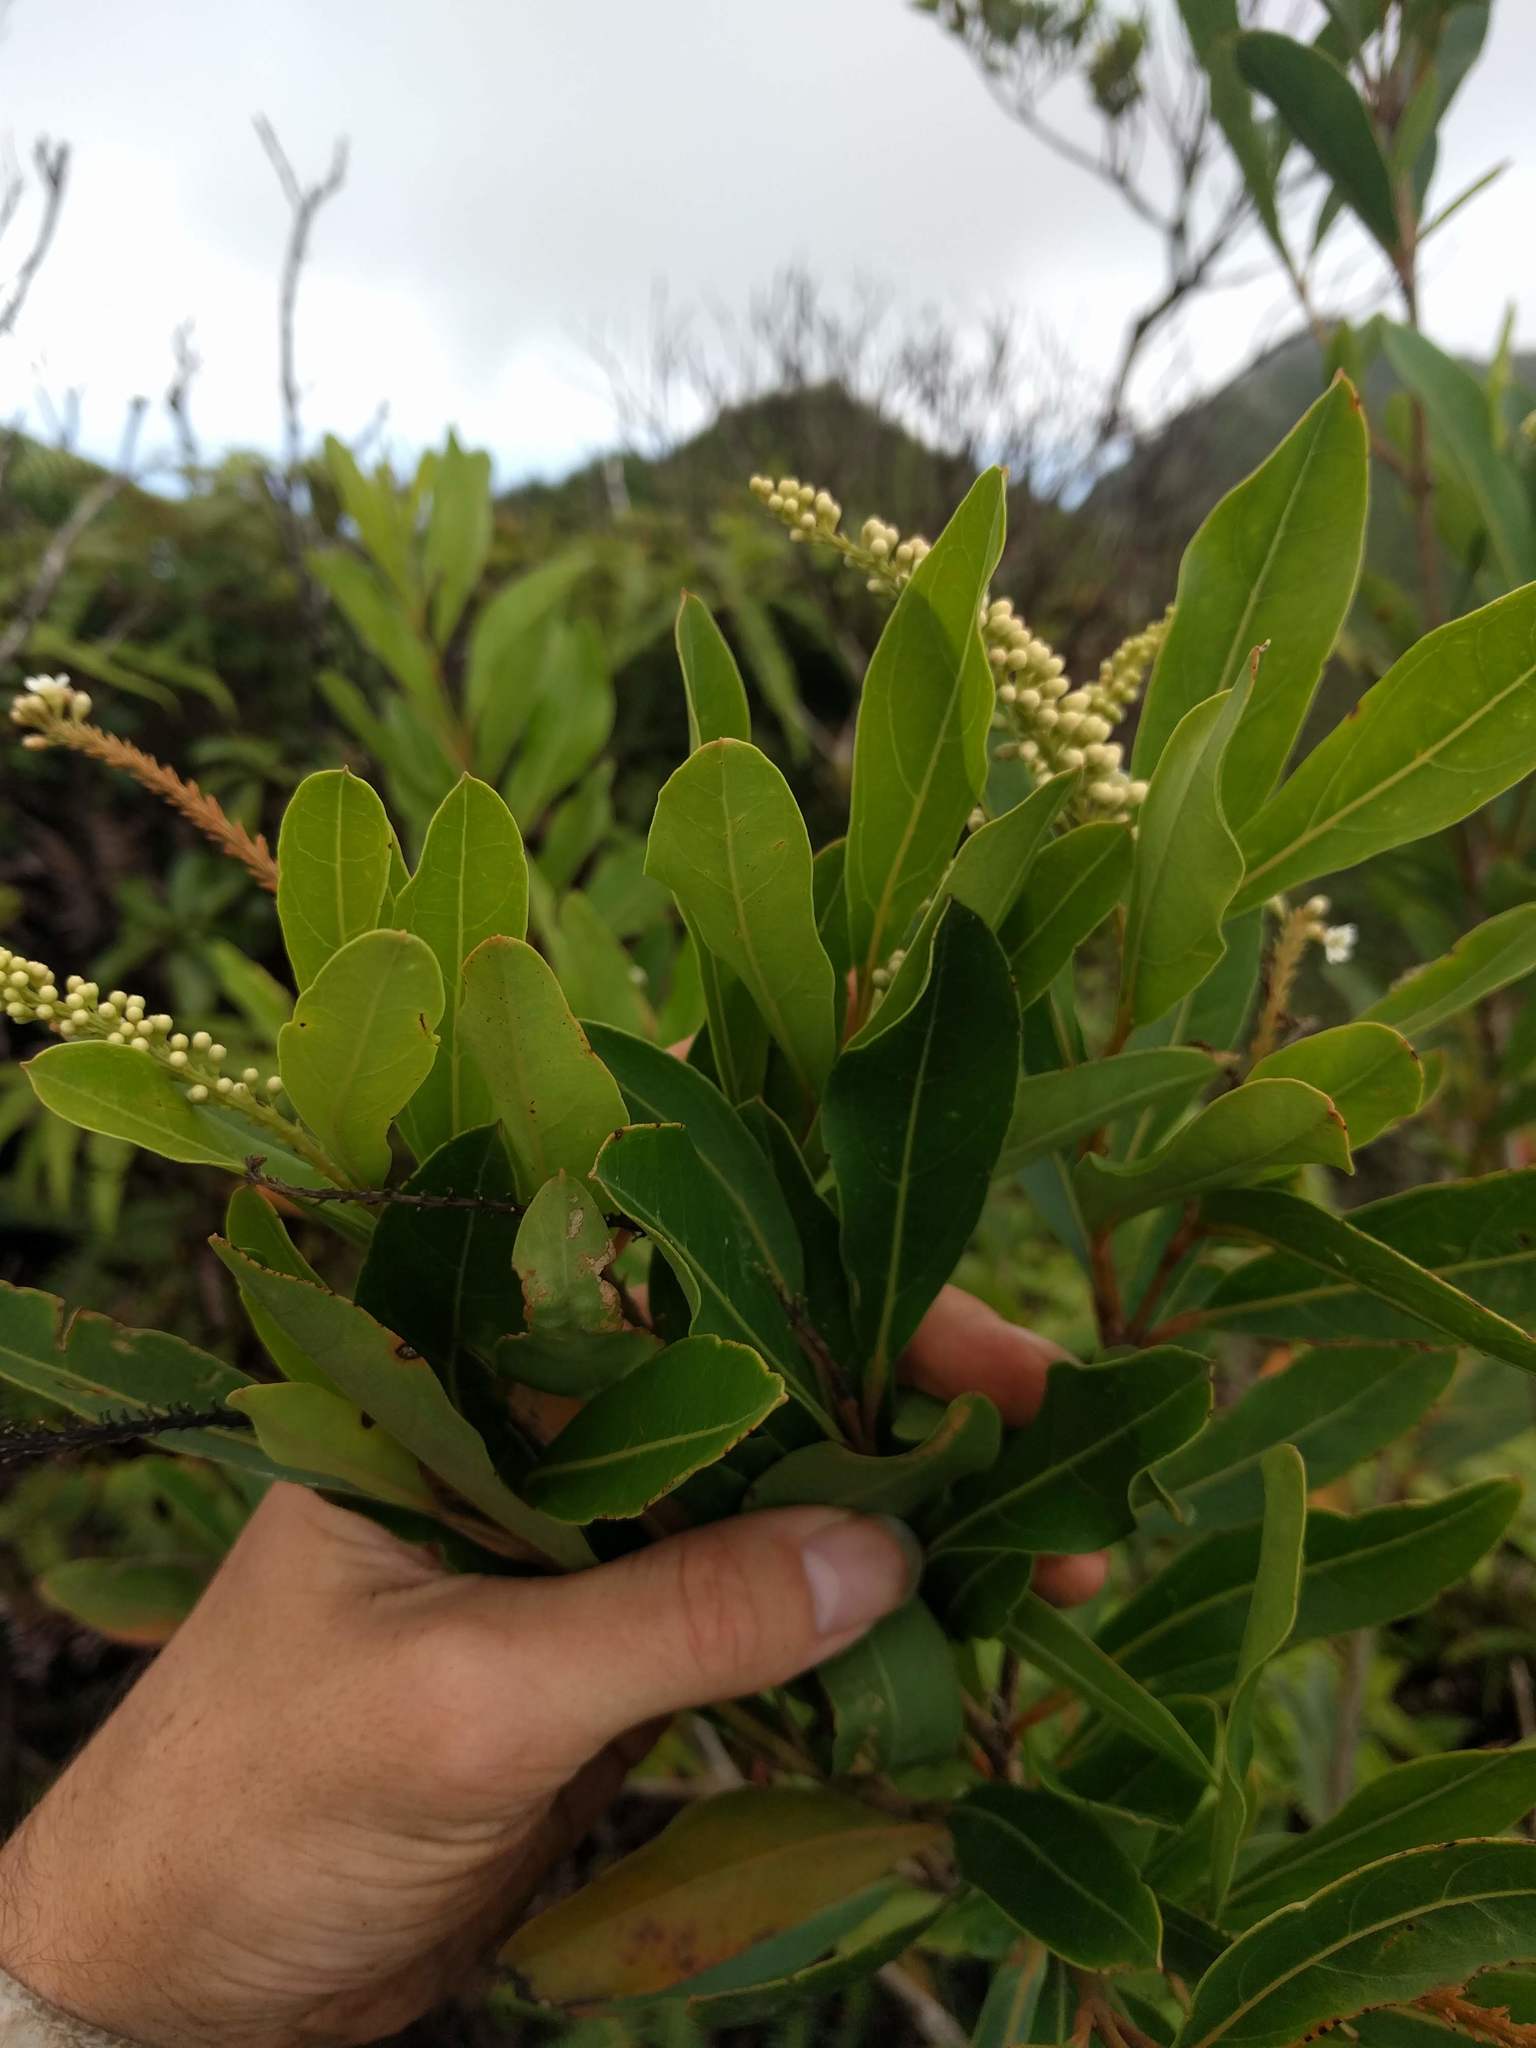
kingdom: Plantae
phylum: Tracheophyta
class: Magnoliopsida
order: Lamiales
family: Verbenaceae
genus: Citharexylum
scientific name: Citharexylum caudatum
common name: Fiddlewood
